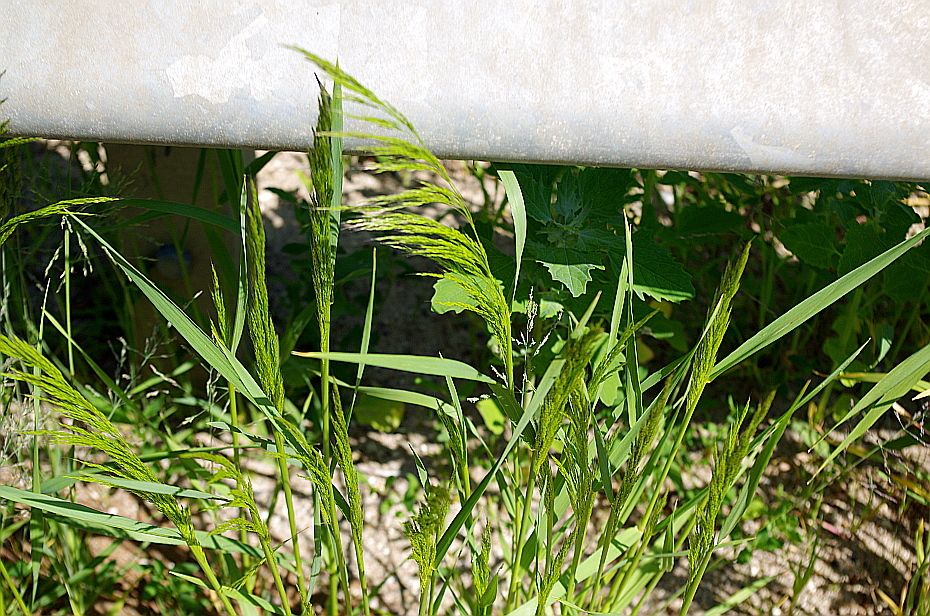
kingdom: Plantae
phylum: Tracheophyta
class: Liliopsida
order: Poales
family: Poaceae
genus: Apera
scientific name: Apera spica-venti
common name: Loose silky-bent
